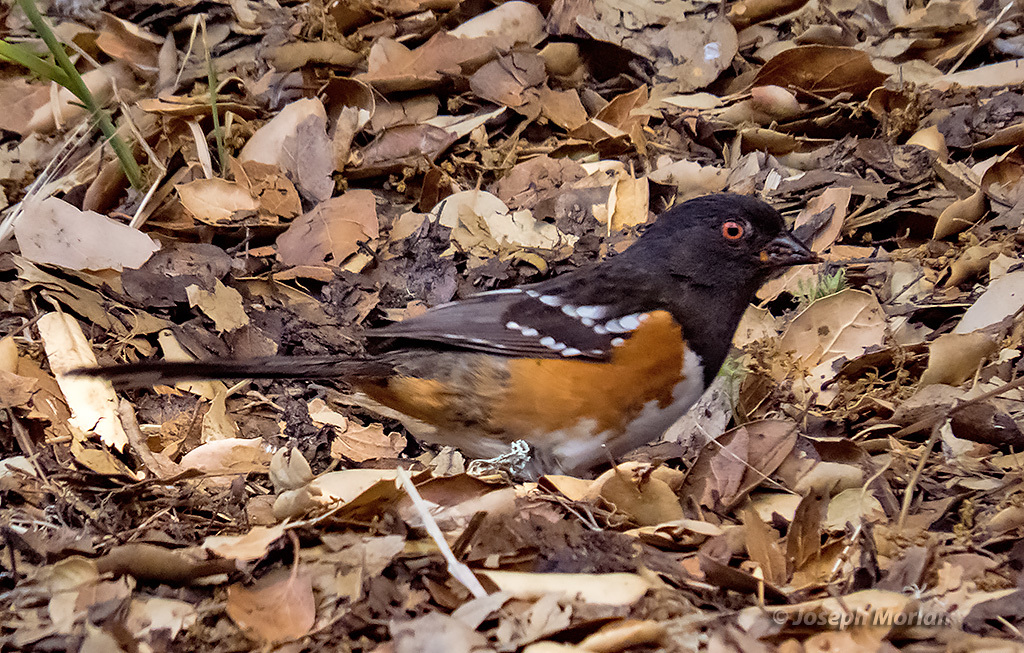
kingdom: Animalia
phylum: Chordata
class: Aves
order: Passeriformes
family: Passerellidae
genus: Pipilo
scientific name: Pipilo maculatus
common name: Spotted towhee
